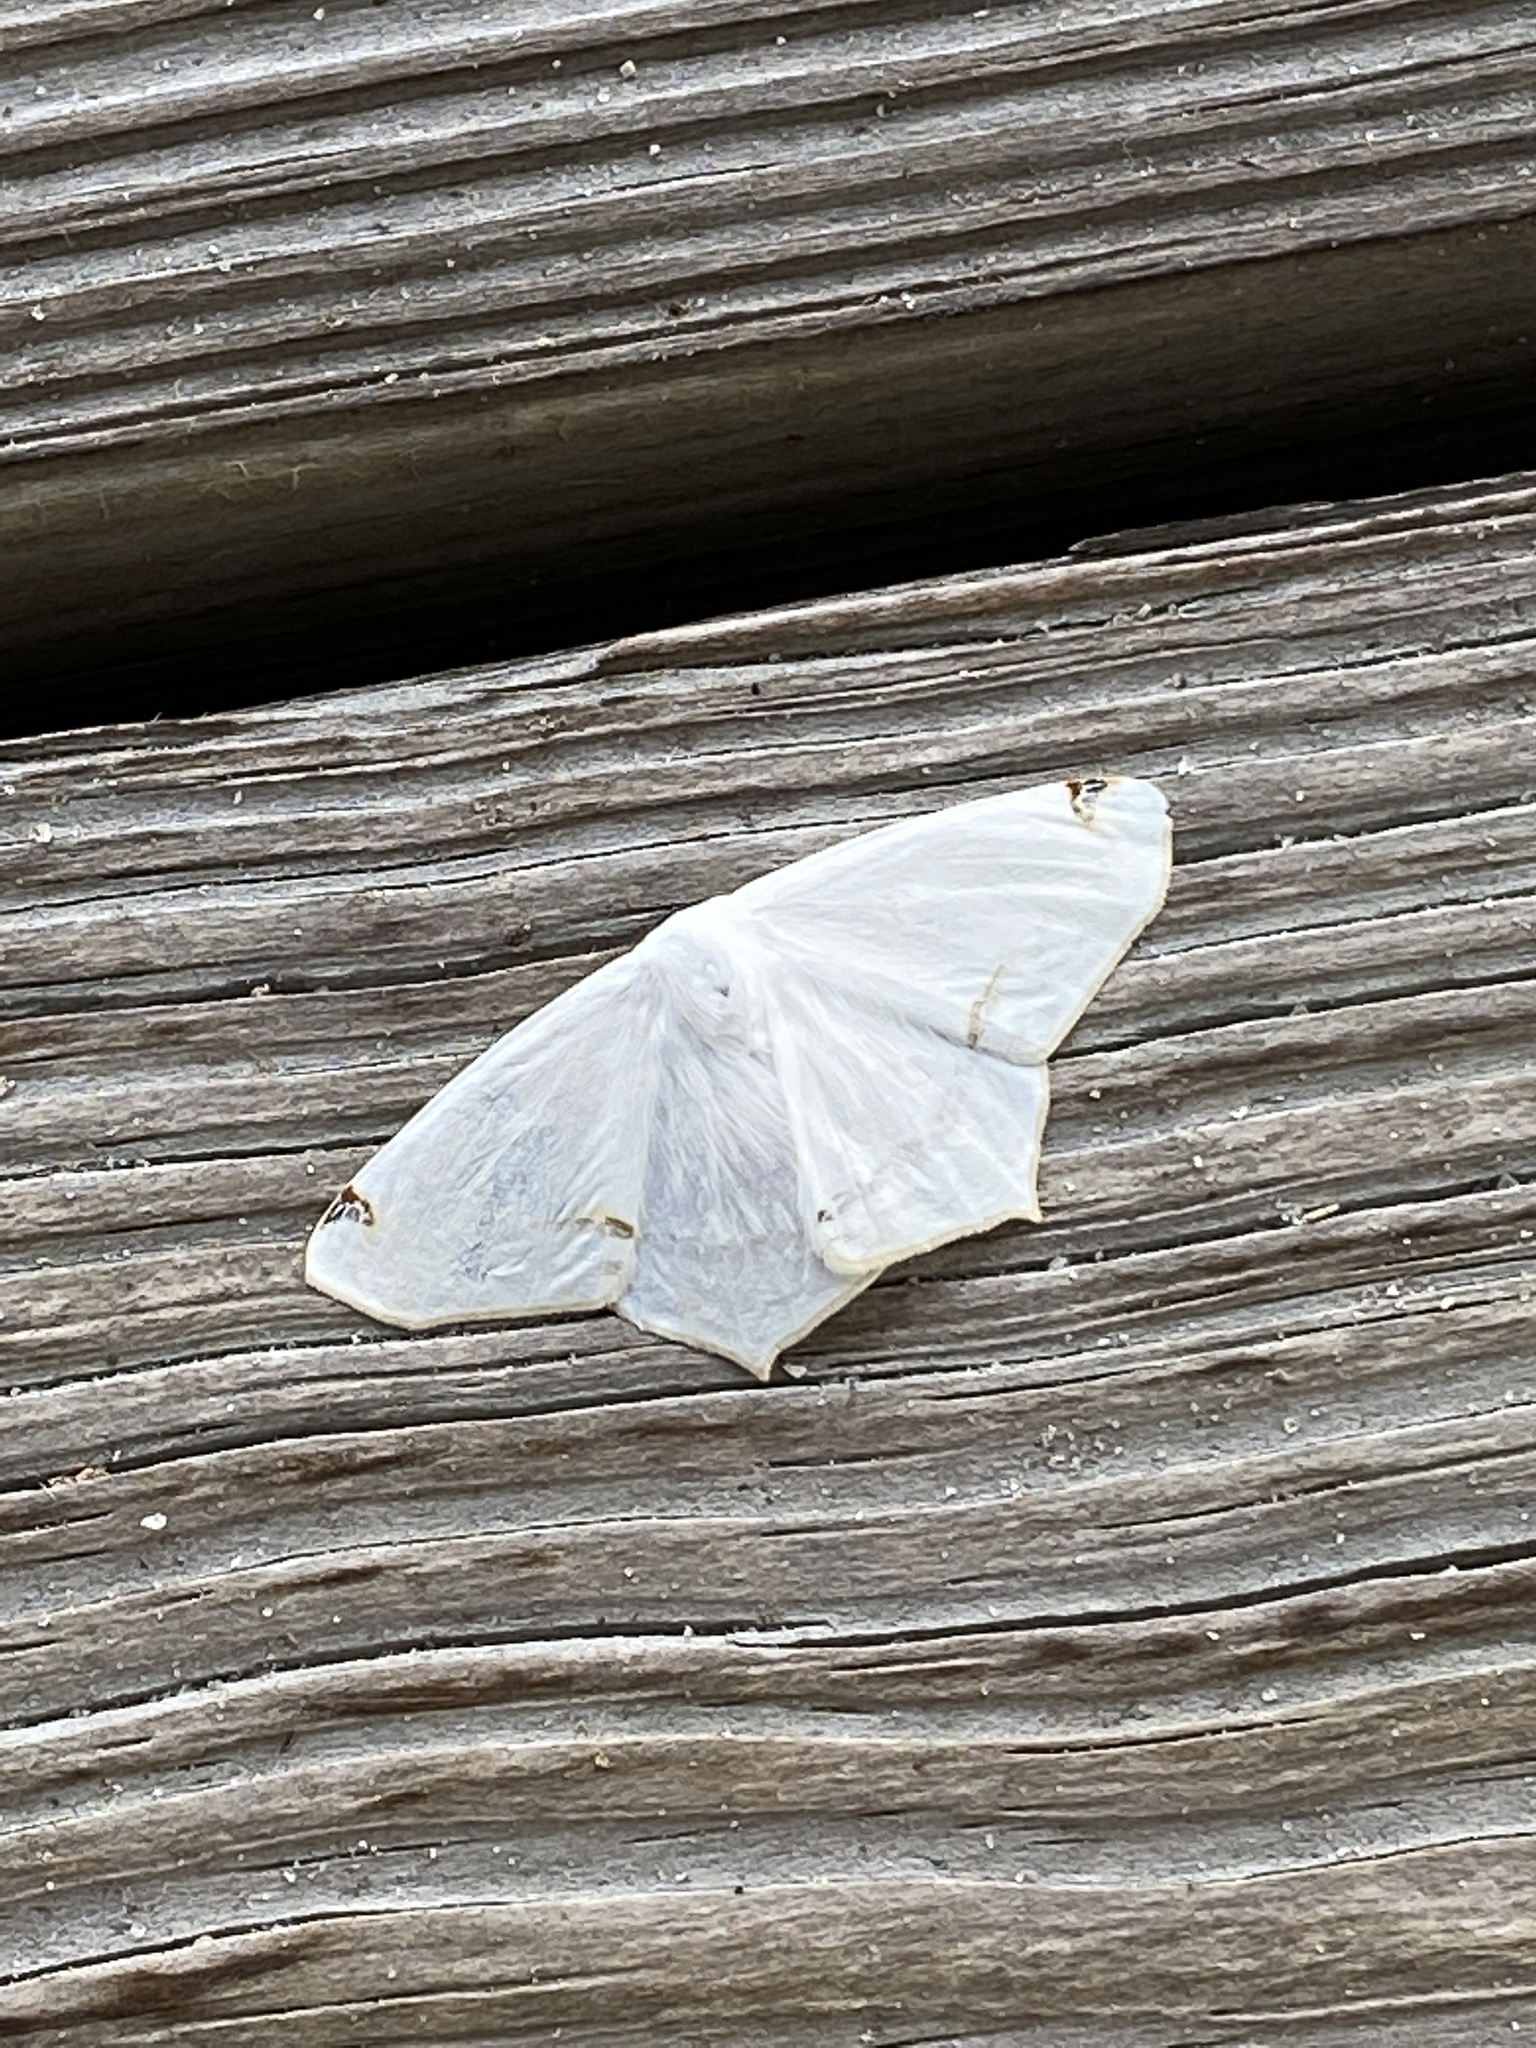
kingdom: Animalia
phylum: Arthropoda
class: Insecta
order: Lepidoptera
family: Geometridae
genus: Sericoptera
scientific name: Sericoptera virginaria
